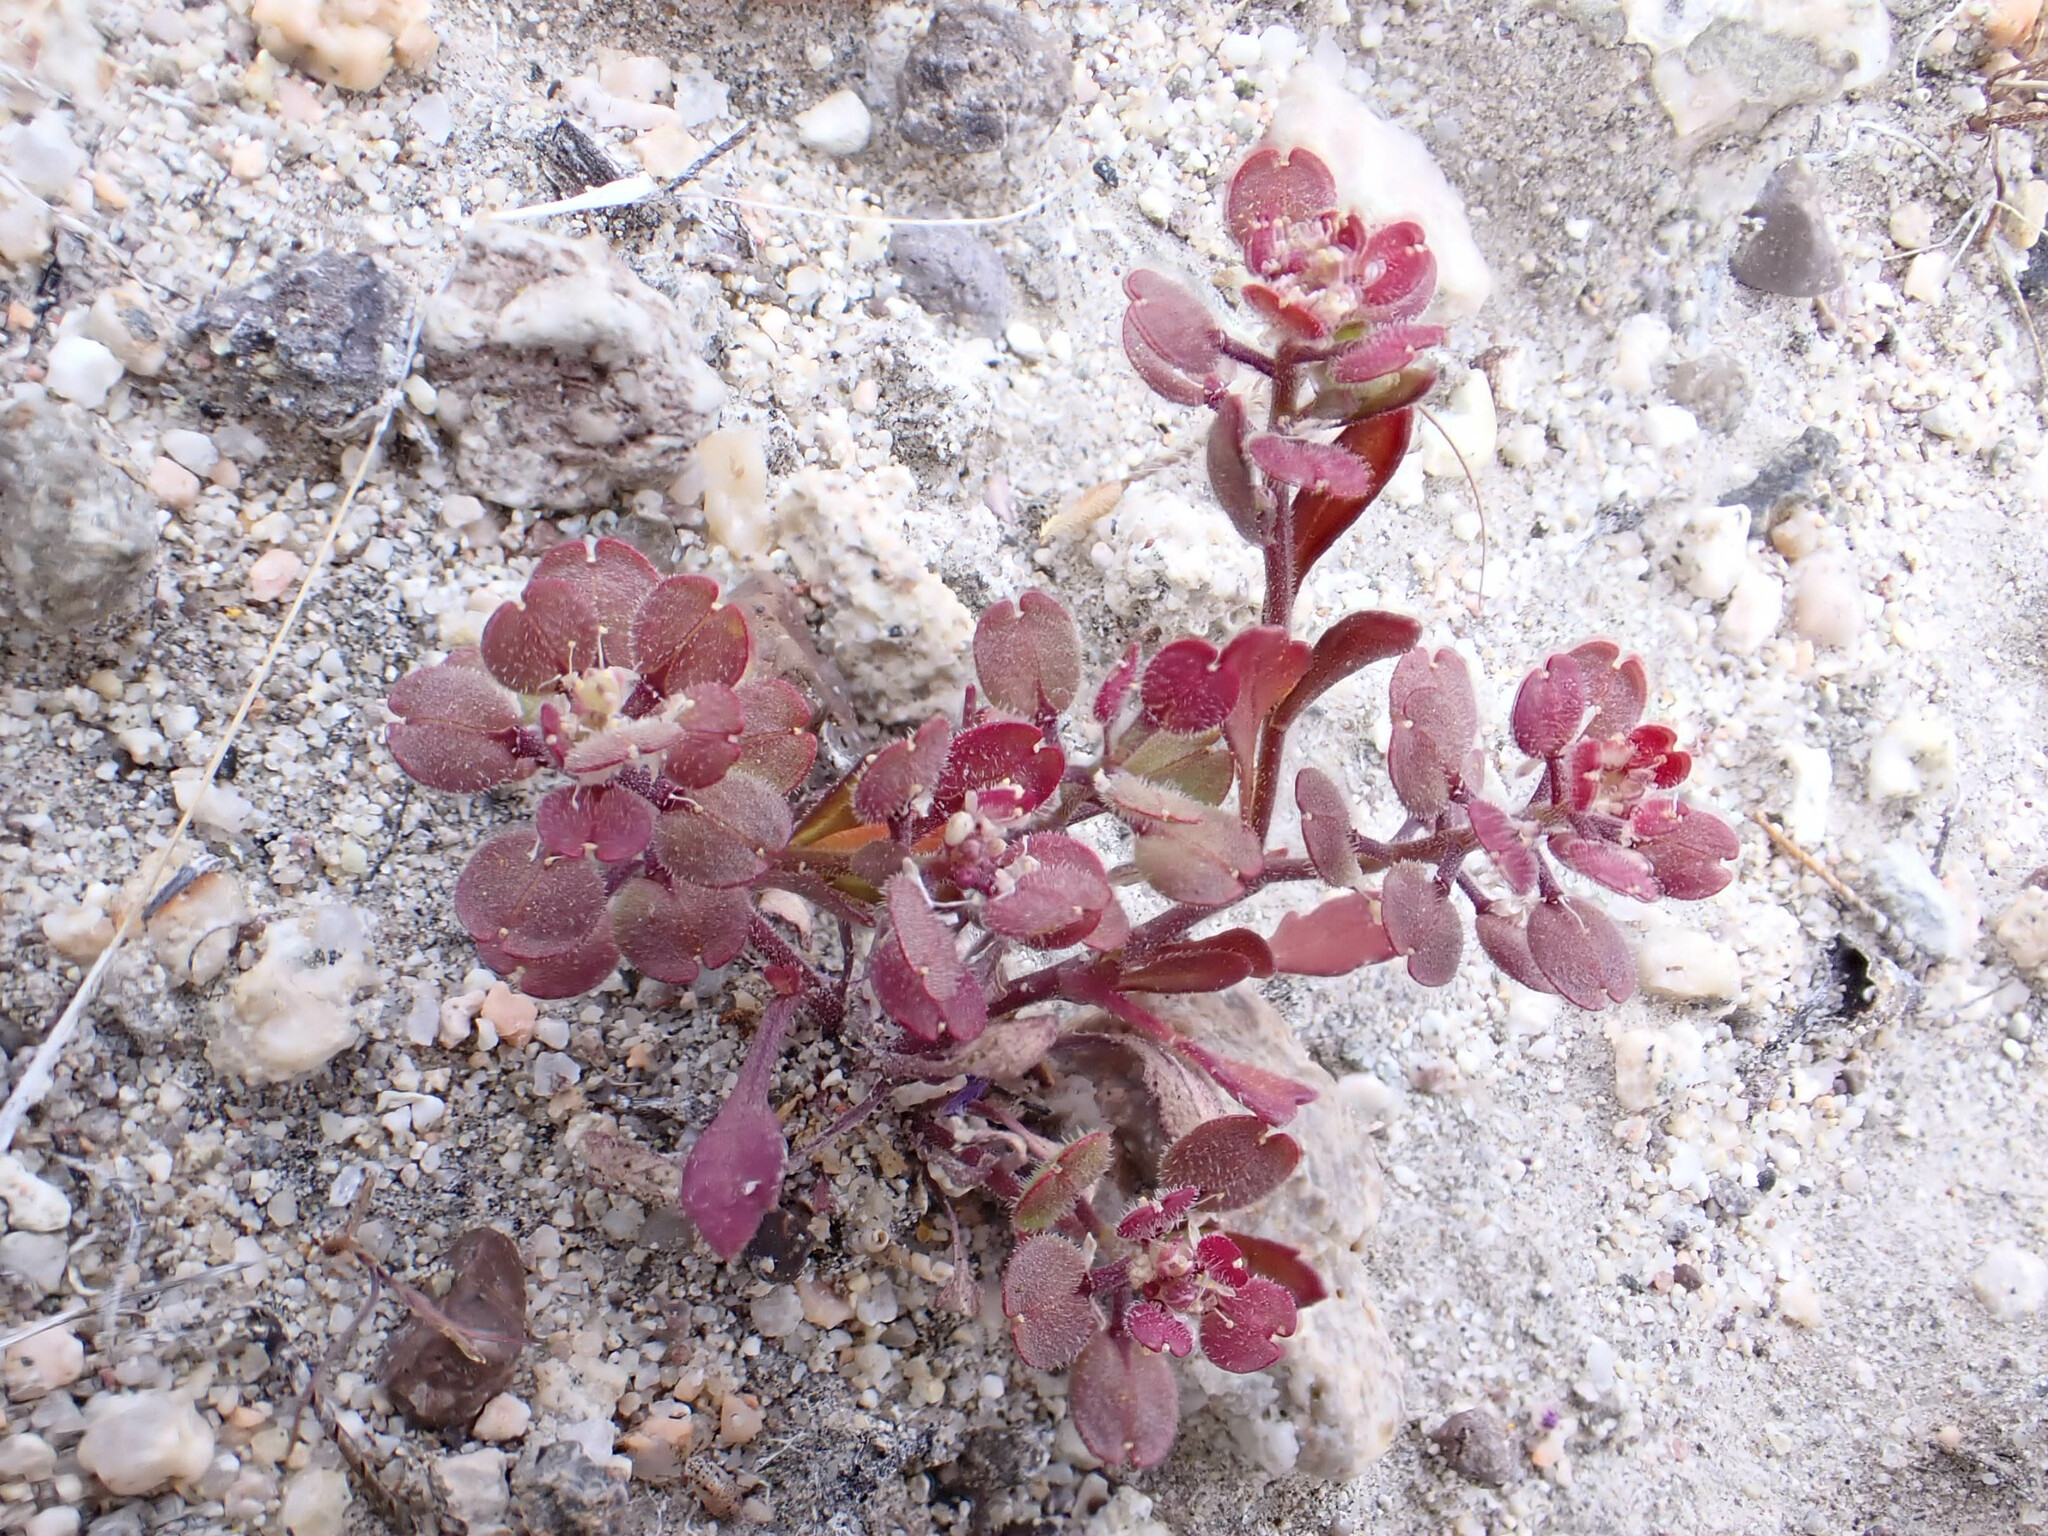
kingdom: Plantae
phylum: Tracheophyta
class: Magnoliopsida
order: Brassicales
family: Brassicaceae
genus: Lepidium
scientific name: Lepidium lasiocarpum
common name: Hairy-pod pepperwort
